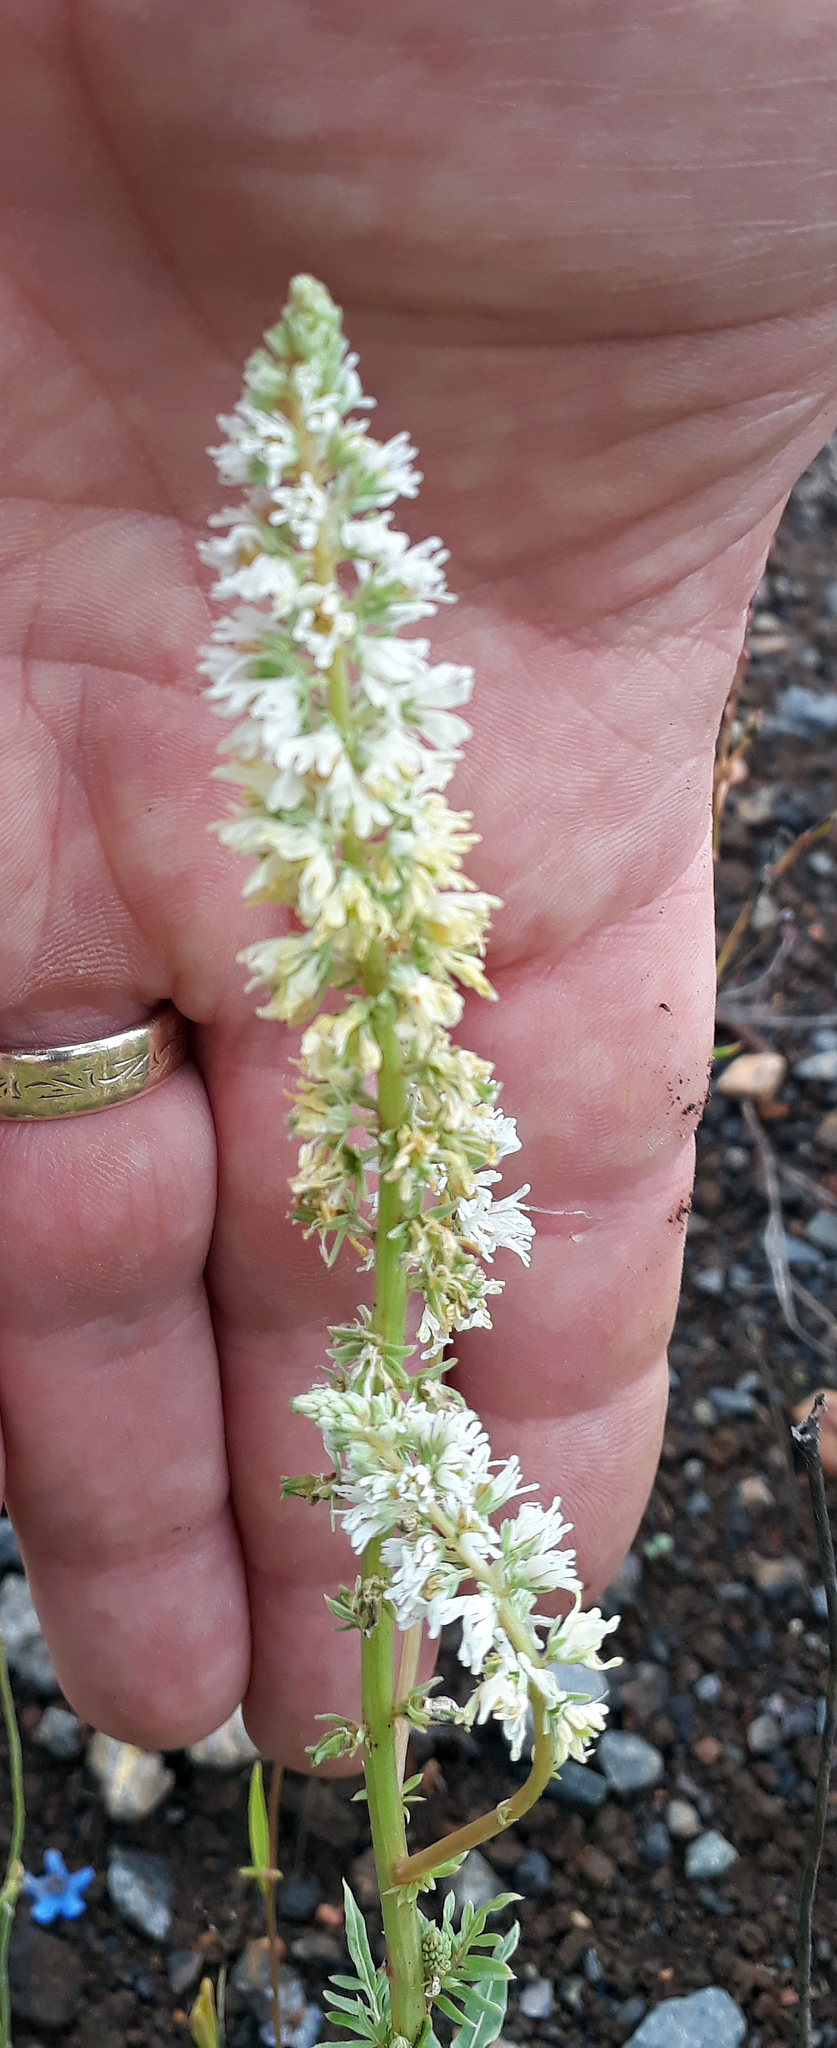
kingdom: Plantae
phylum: Tracheophyta
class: Magnoliopsida
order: Brassicales
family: Resedaceae
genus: Reseda
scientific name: Reseda alba
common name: White mignonette
